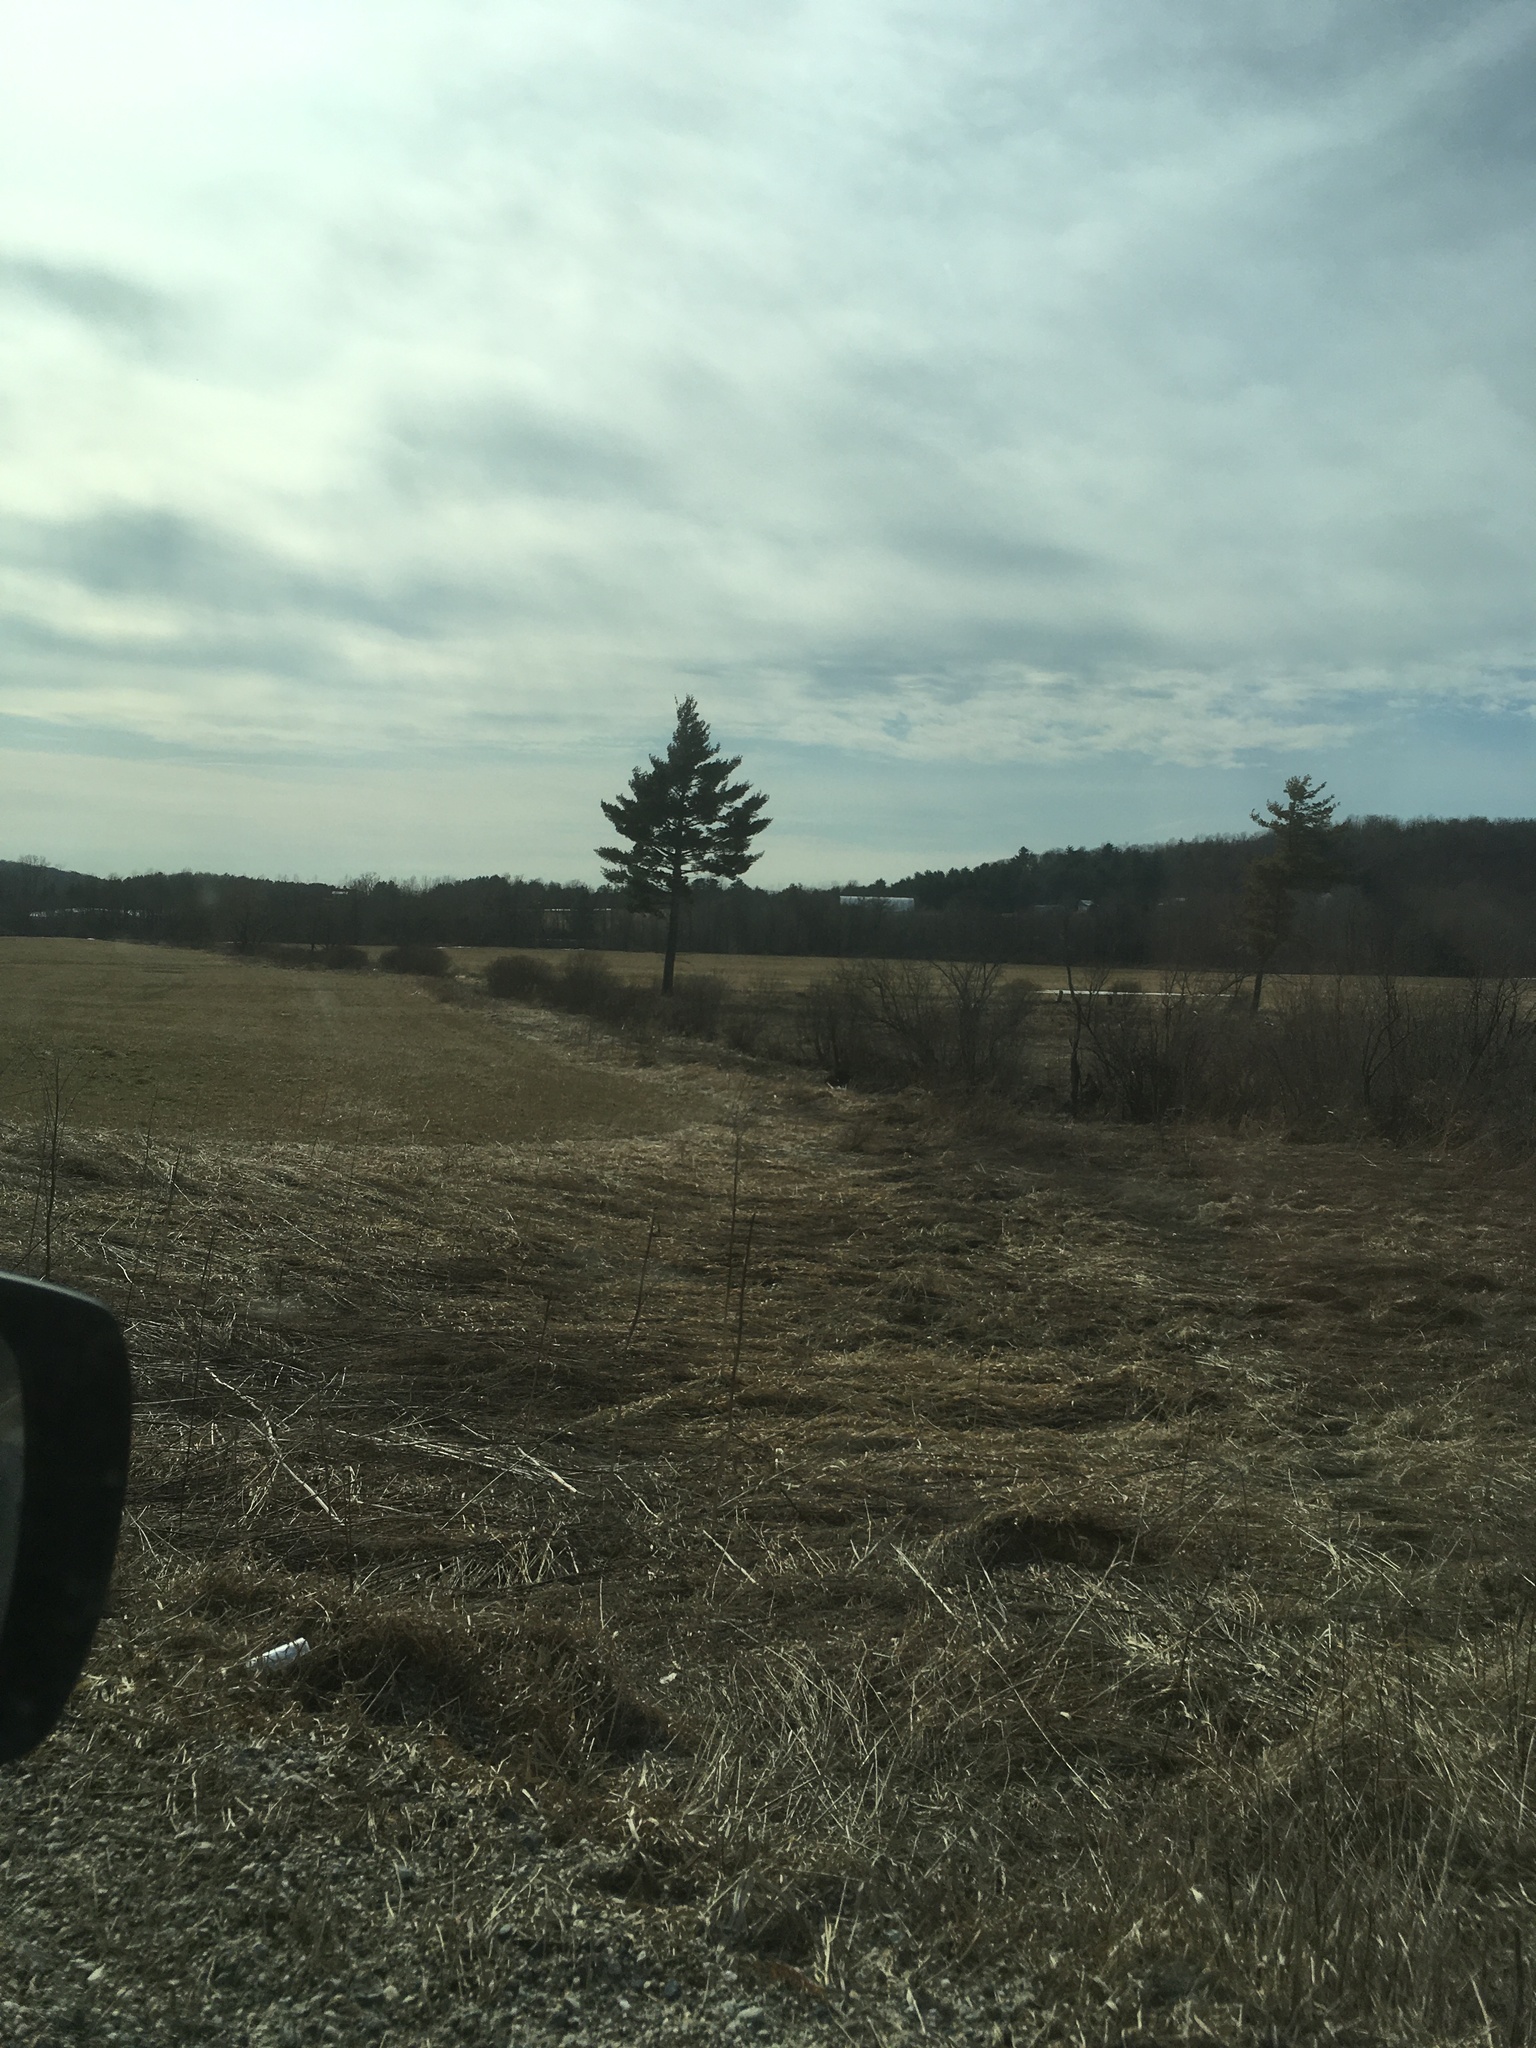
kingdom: Plantae
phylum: Tracheophyta
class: Pinopsida
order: Pinales
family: Pinaceae
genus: Pinus
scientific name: Pinus strobus
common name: Weymouth pine
